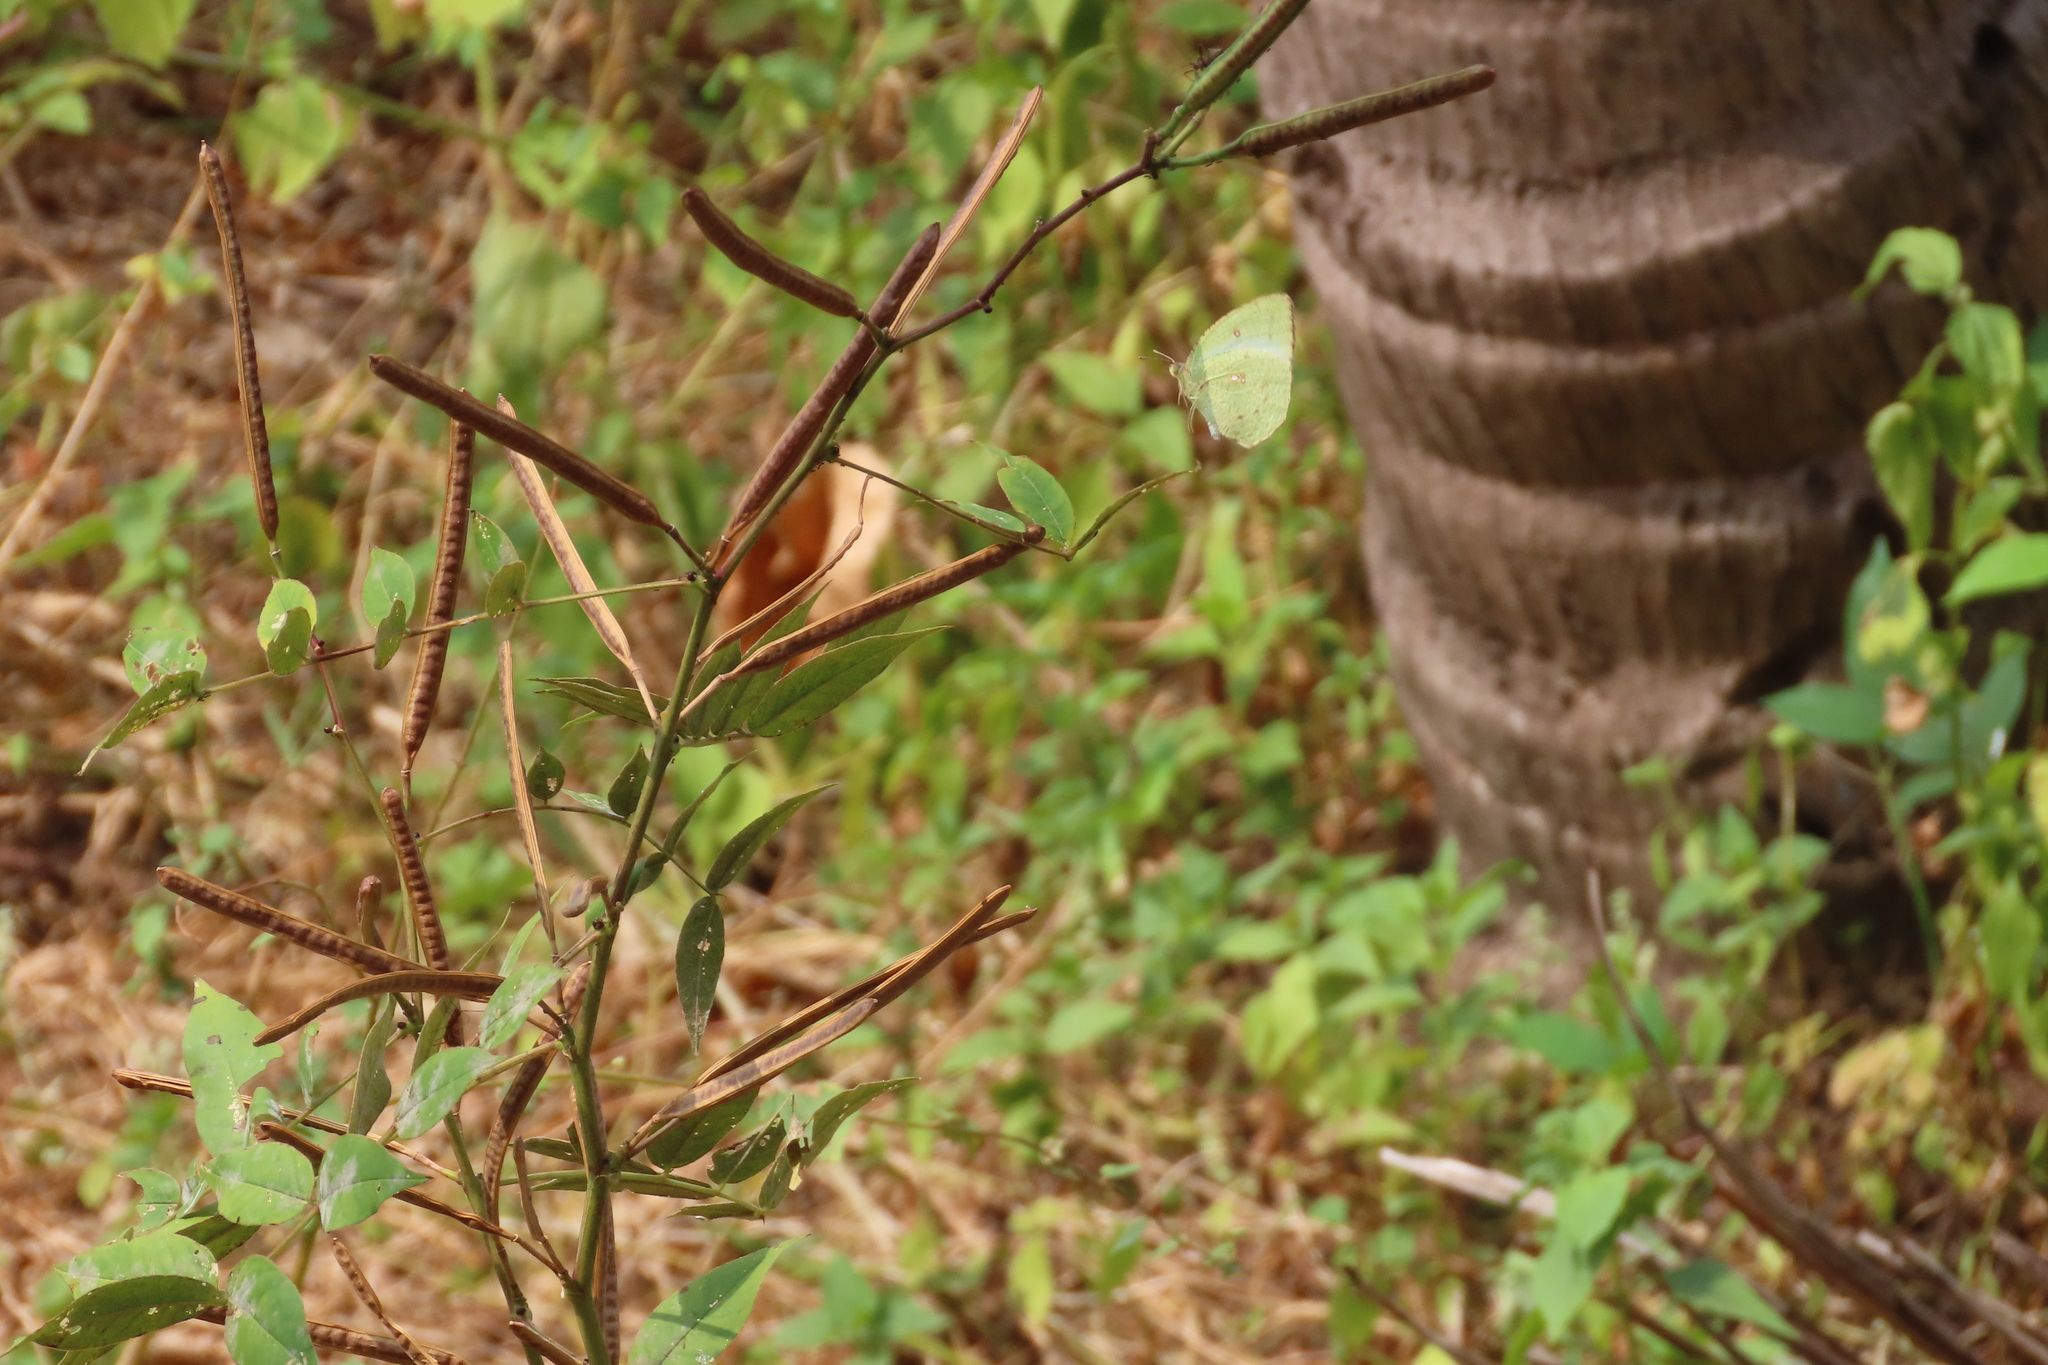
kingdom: Animalia
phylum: Arthropoda
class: Insecta
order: Lepidoptera
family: Pieridae
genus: Catopsilia
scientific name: Catopsilia pyranthe
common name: Mottled emigrant
